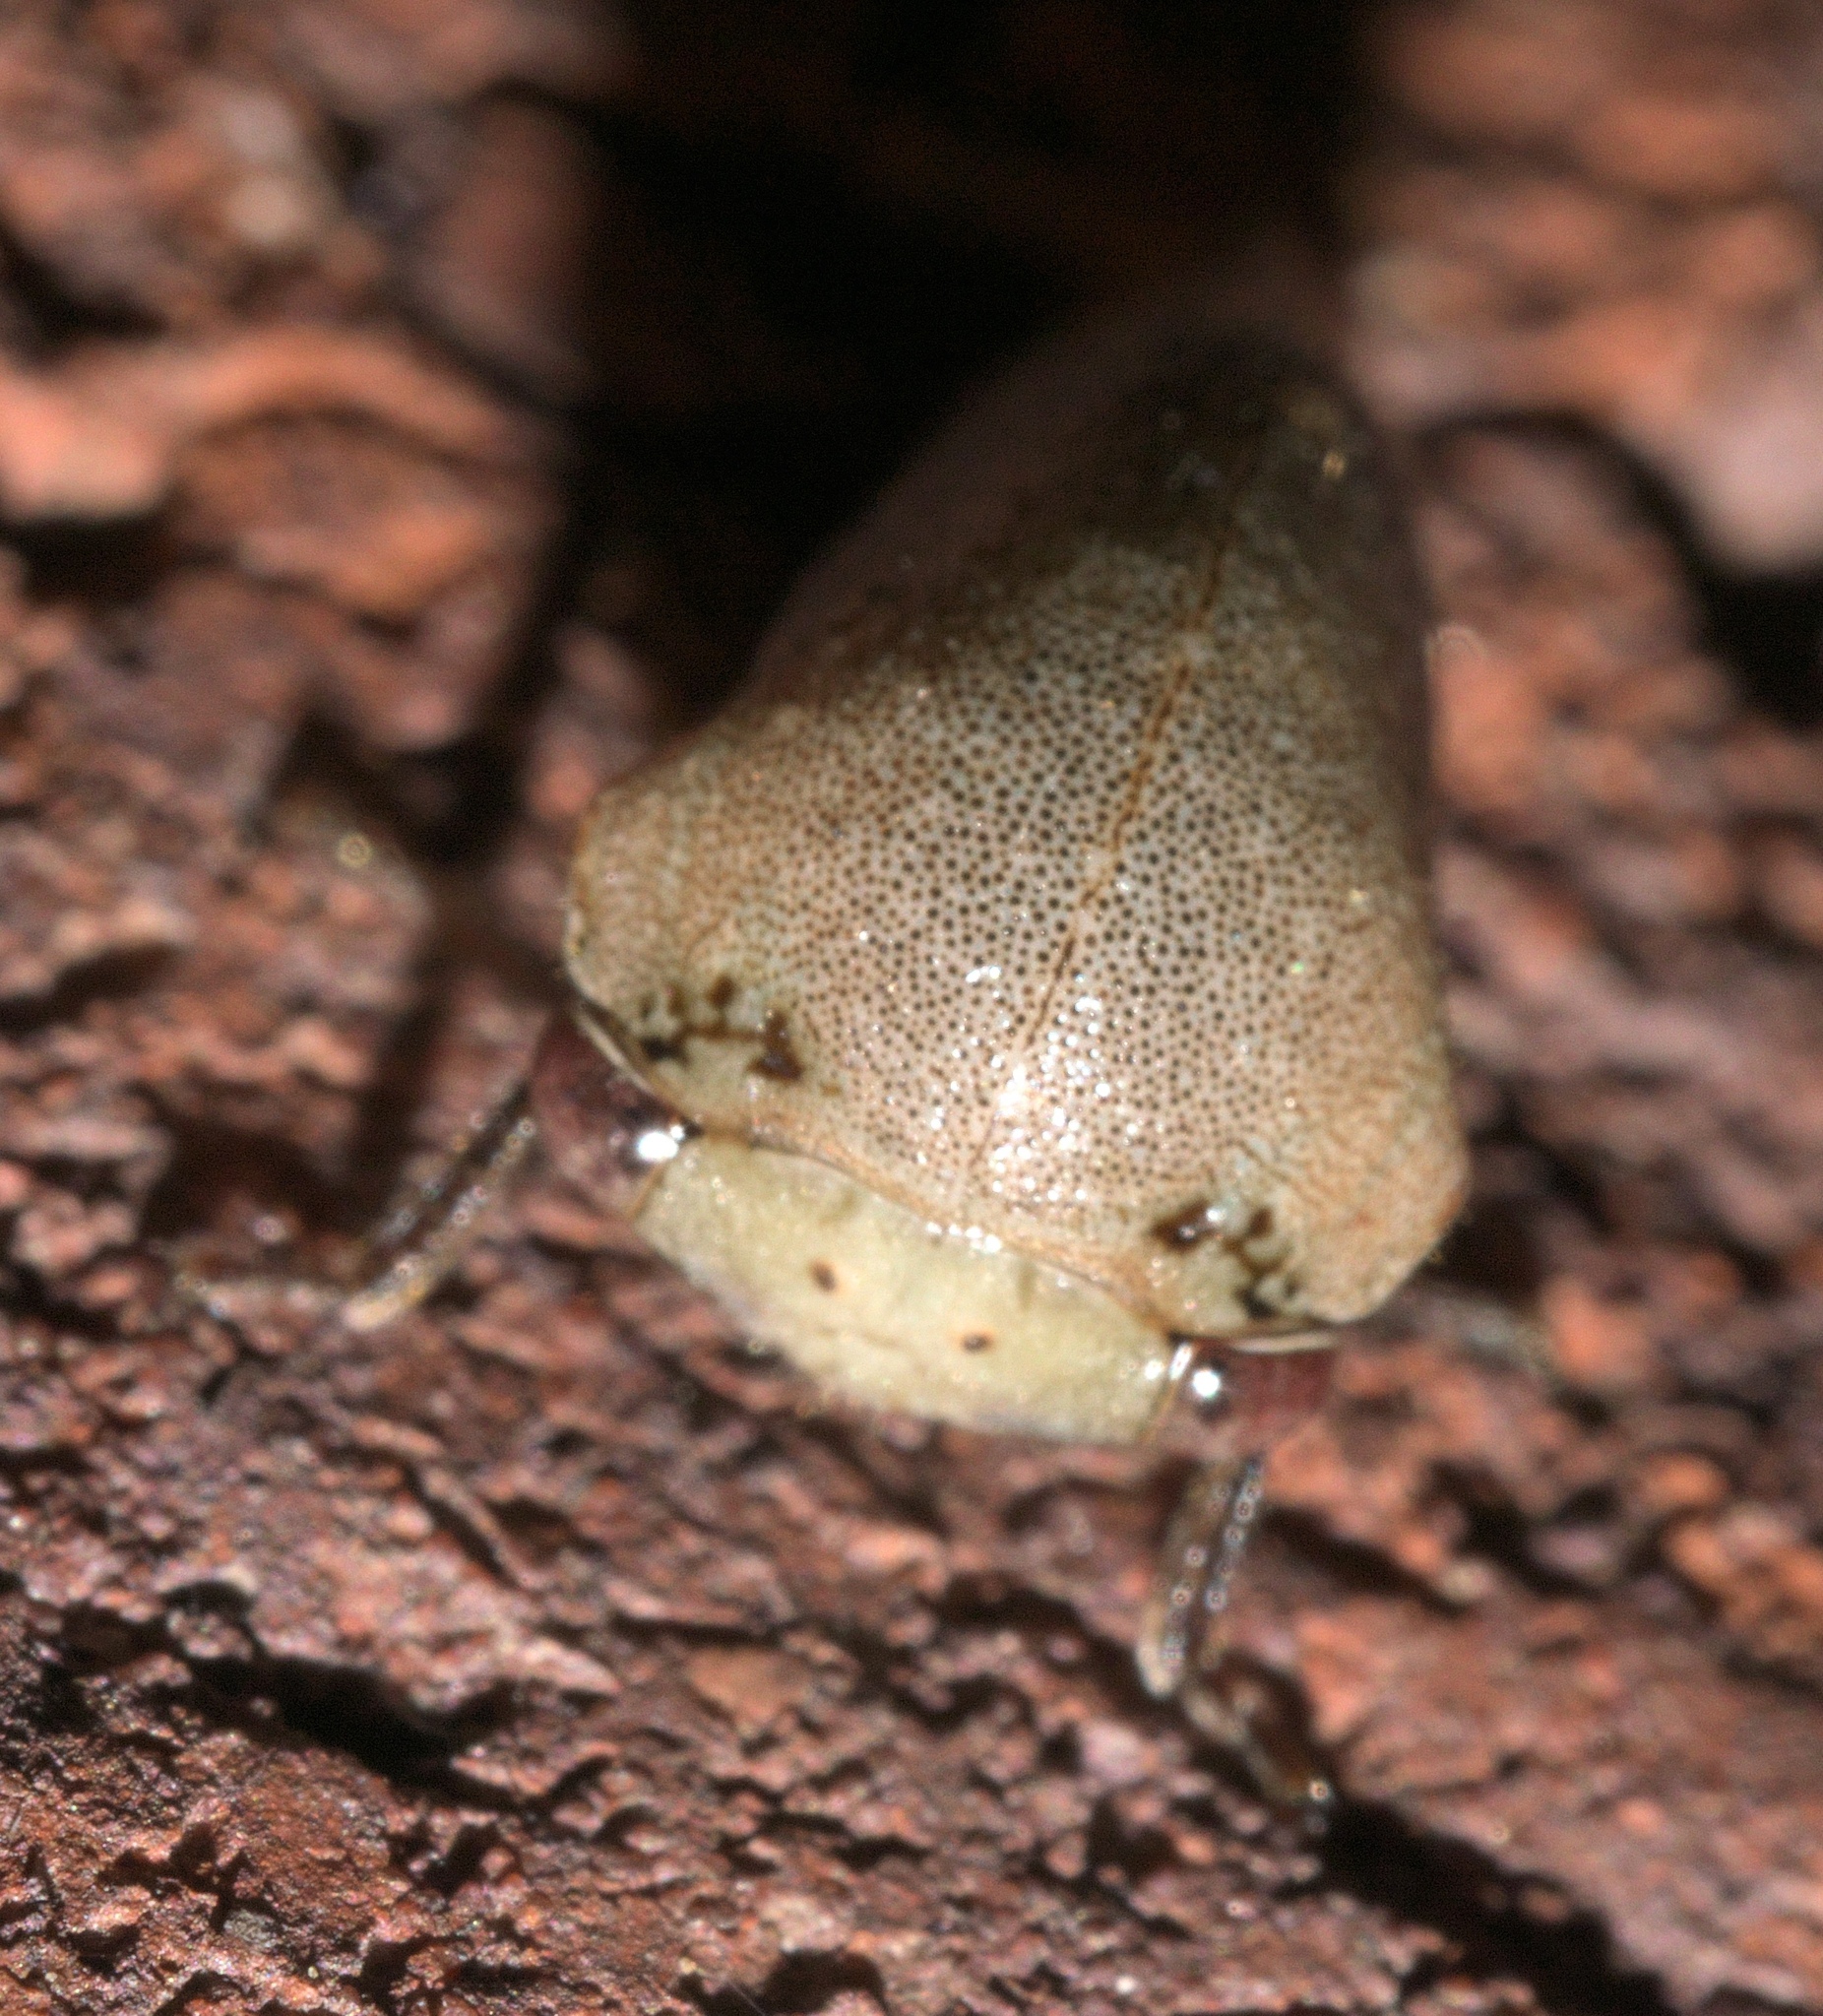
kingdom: Animalia
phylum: Arthropoda
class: Insecta
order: Hemiptera
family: Membracidae
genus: Carynota
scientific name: Carynota mera
